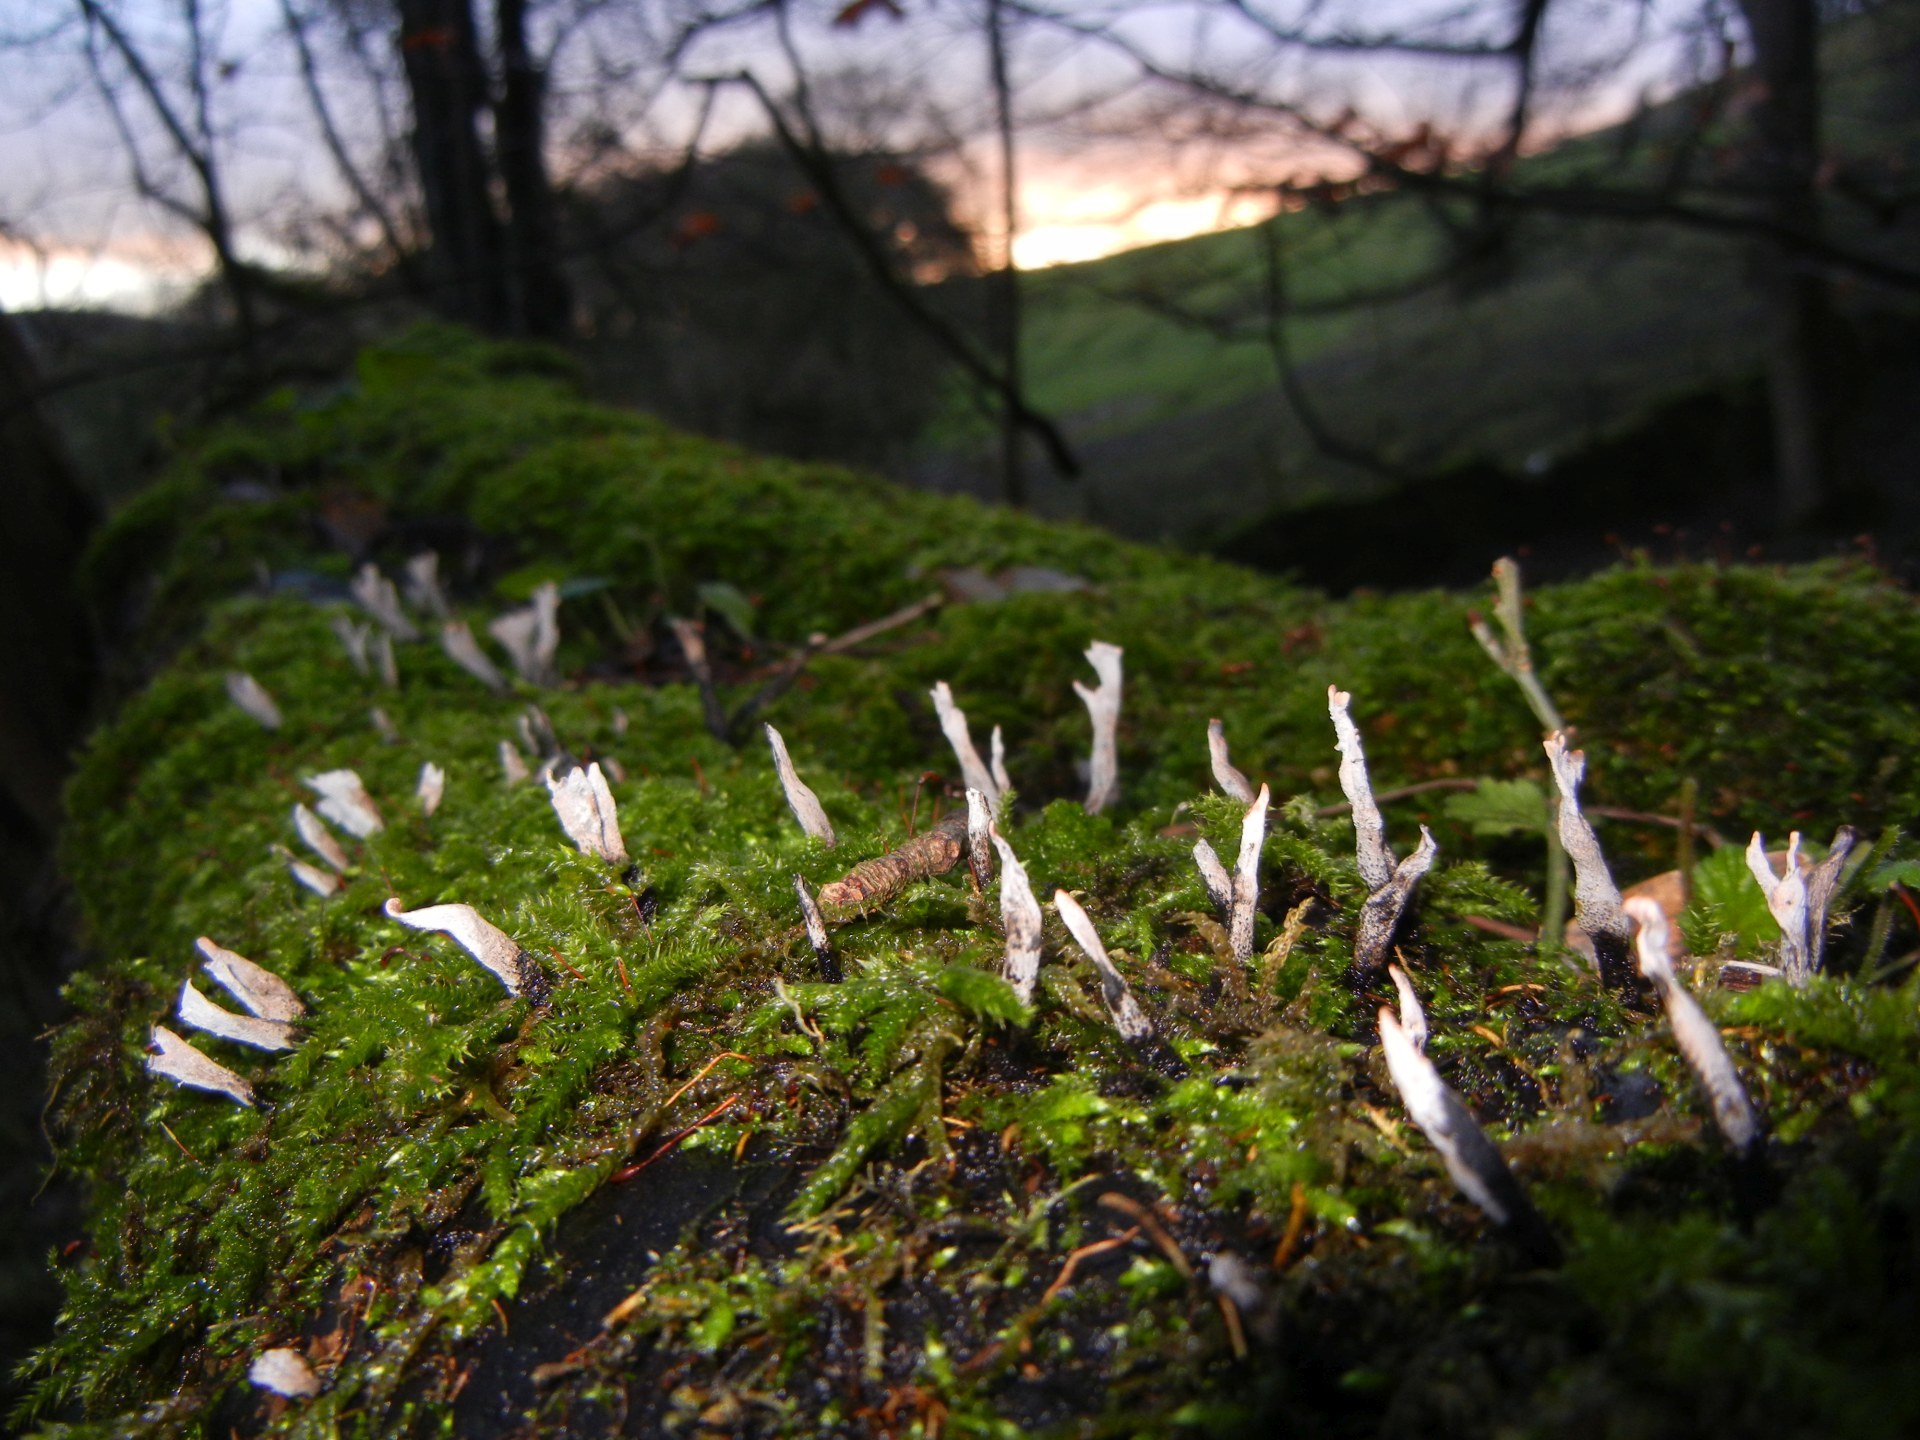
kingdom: Fungi
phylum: Ascomycota
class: Sordariomycetes
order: Xylariales
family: Xylariaceae
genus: Xylaria
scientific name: Xylaria hypoxylon
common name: Candle-snuff fungus
